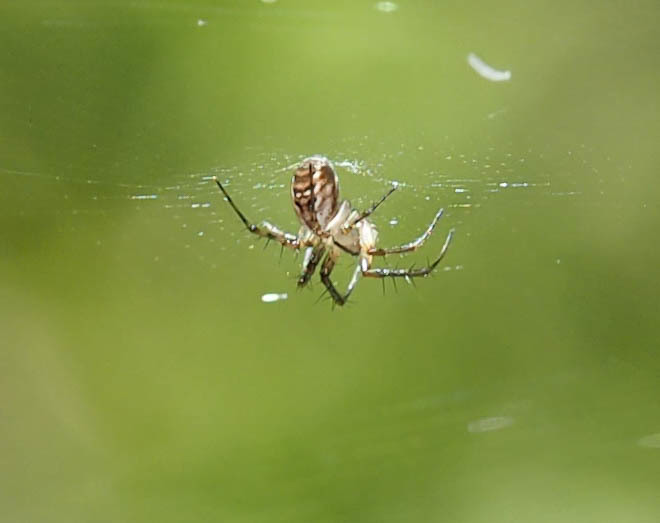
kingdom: Animalia
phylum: Arthropoda
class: Arachnida
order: Araneae
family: Araneidae
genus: Mangora
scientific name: Mangora placida
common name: Tuft-legged orbweaver
